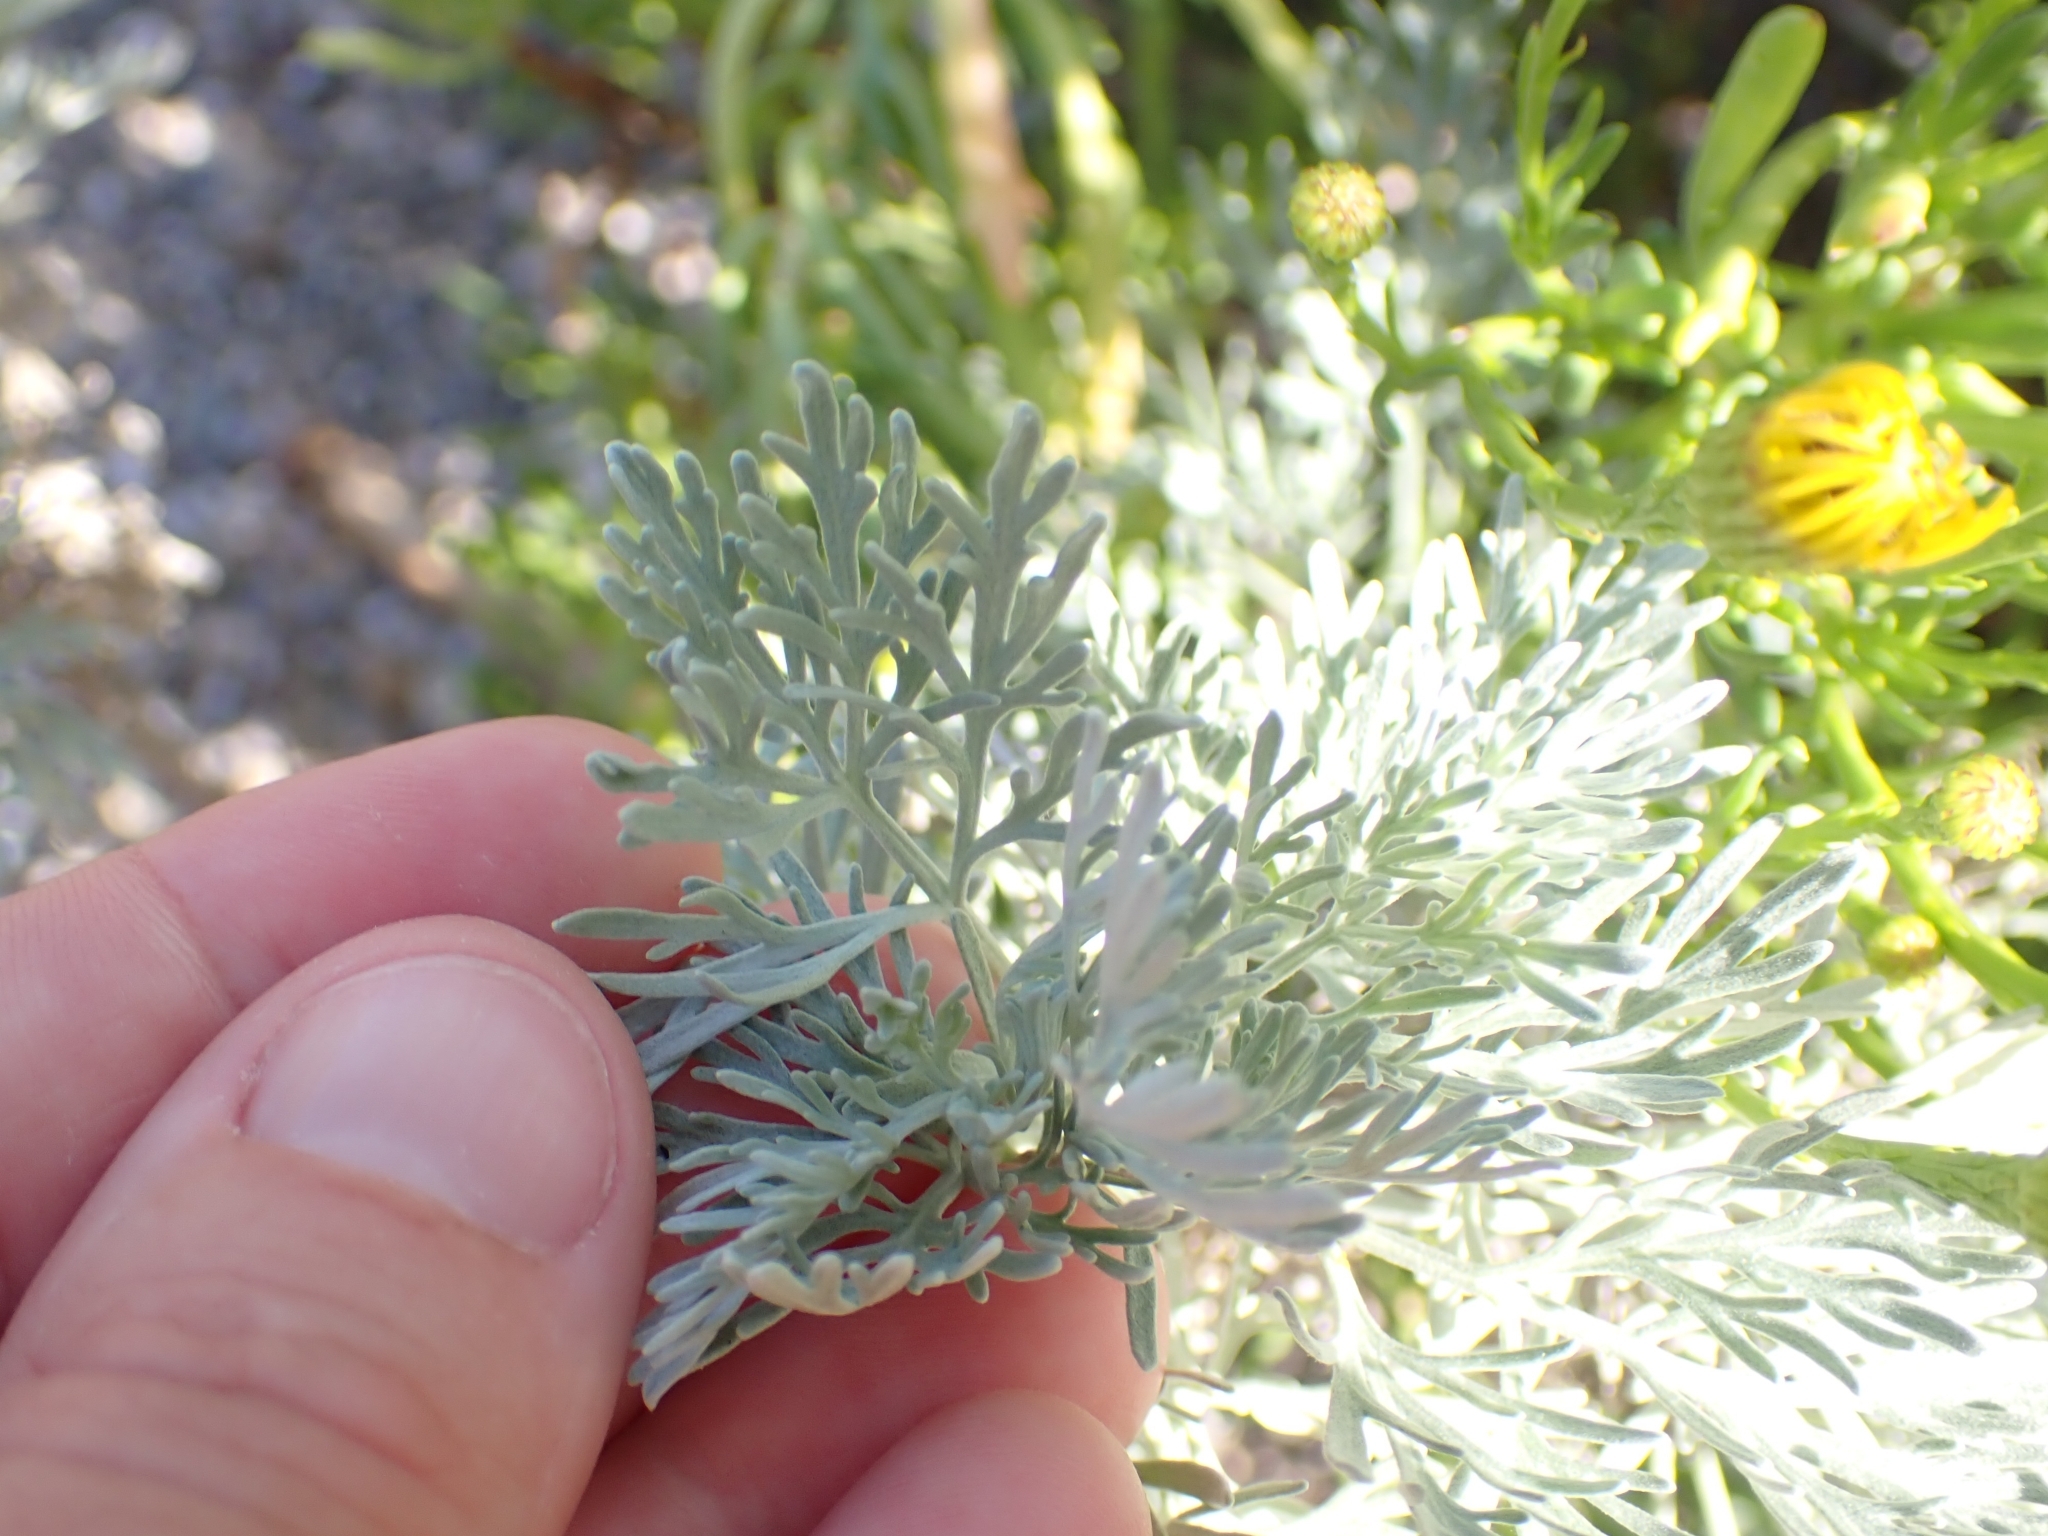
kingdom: Plantae
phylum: Tracheophyta
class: Magnoliopsida
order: Asterales
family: Asteraceae
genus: Artemisia
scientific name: Artemisia arborescens
